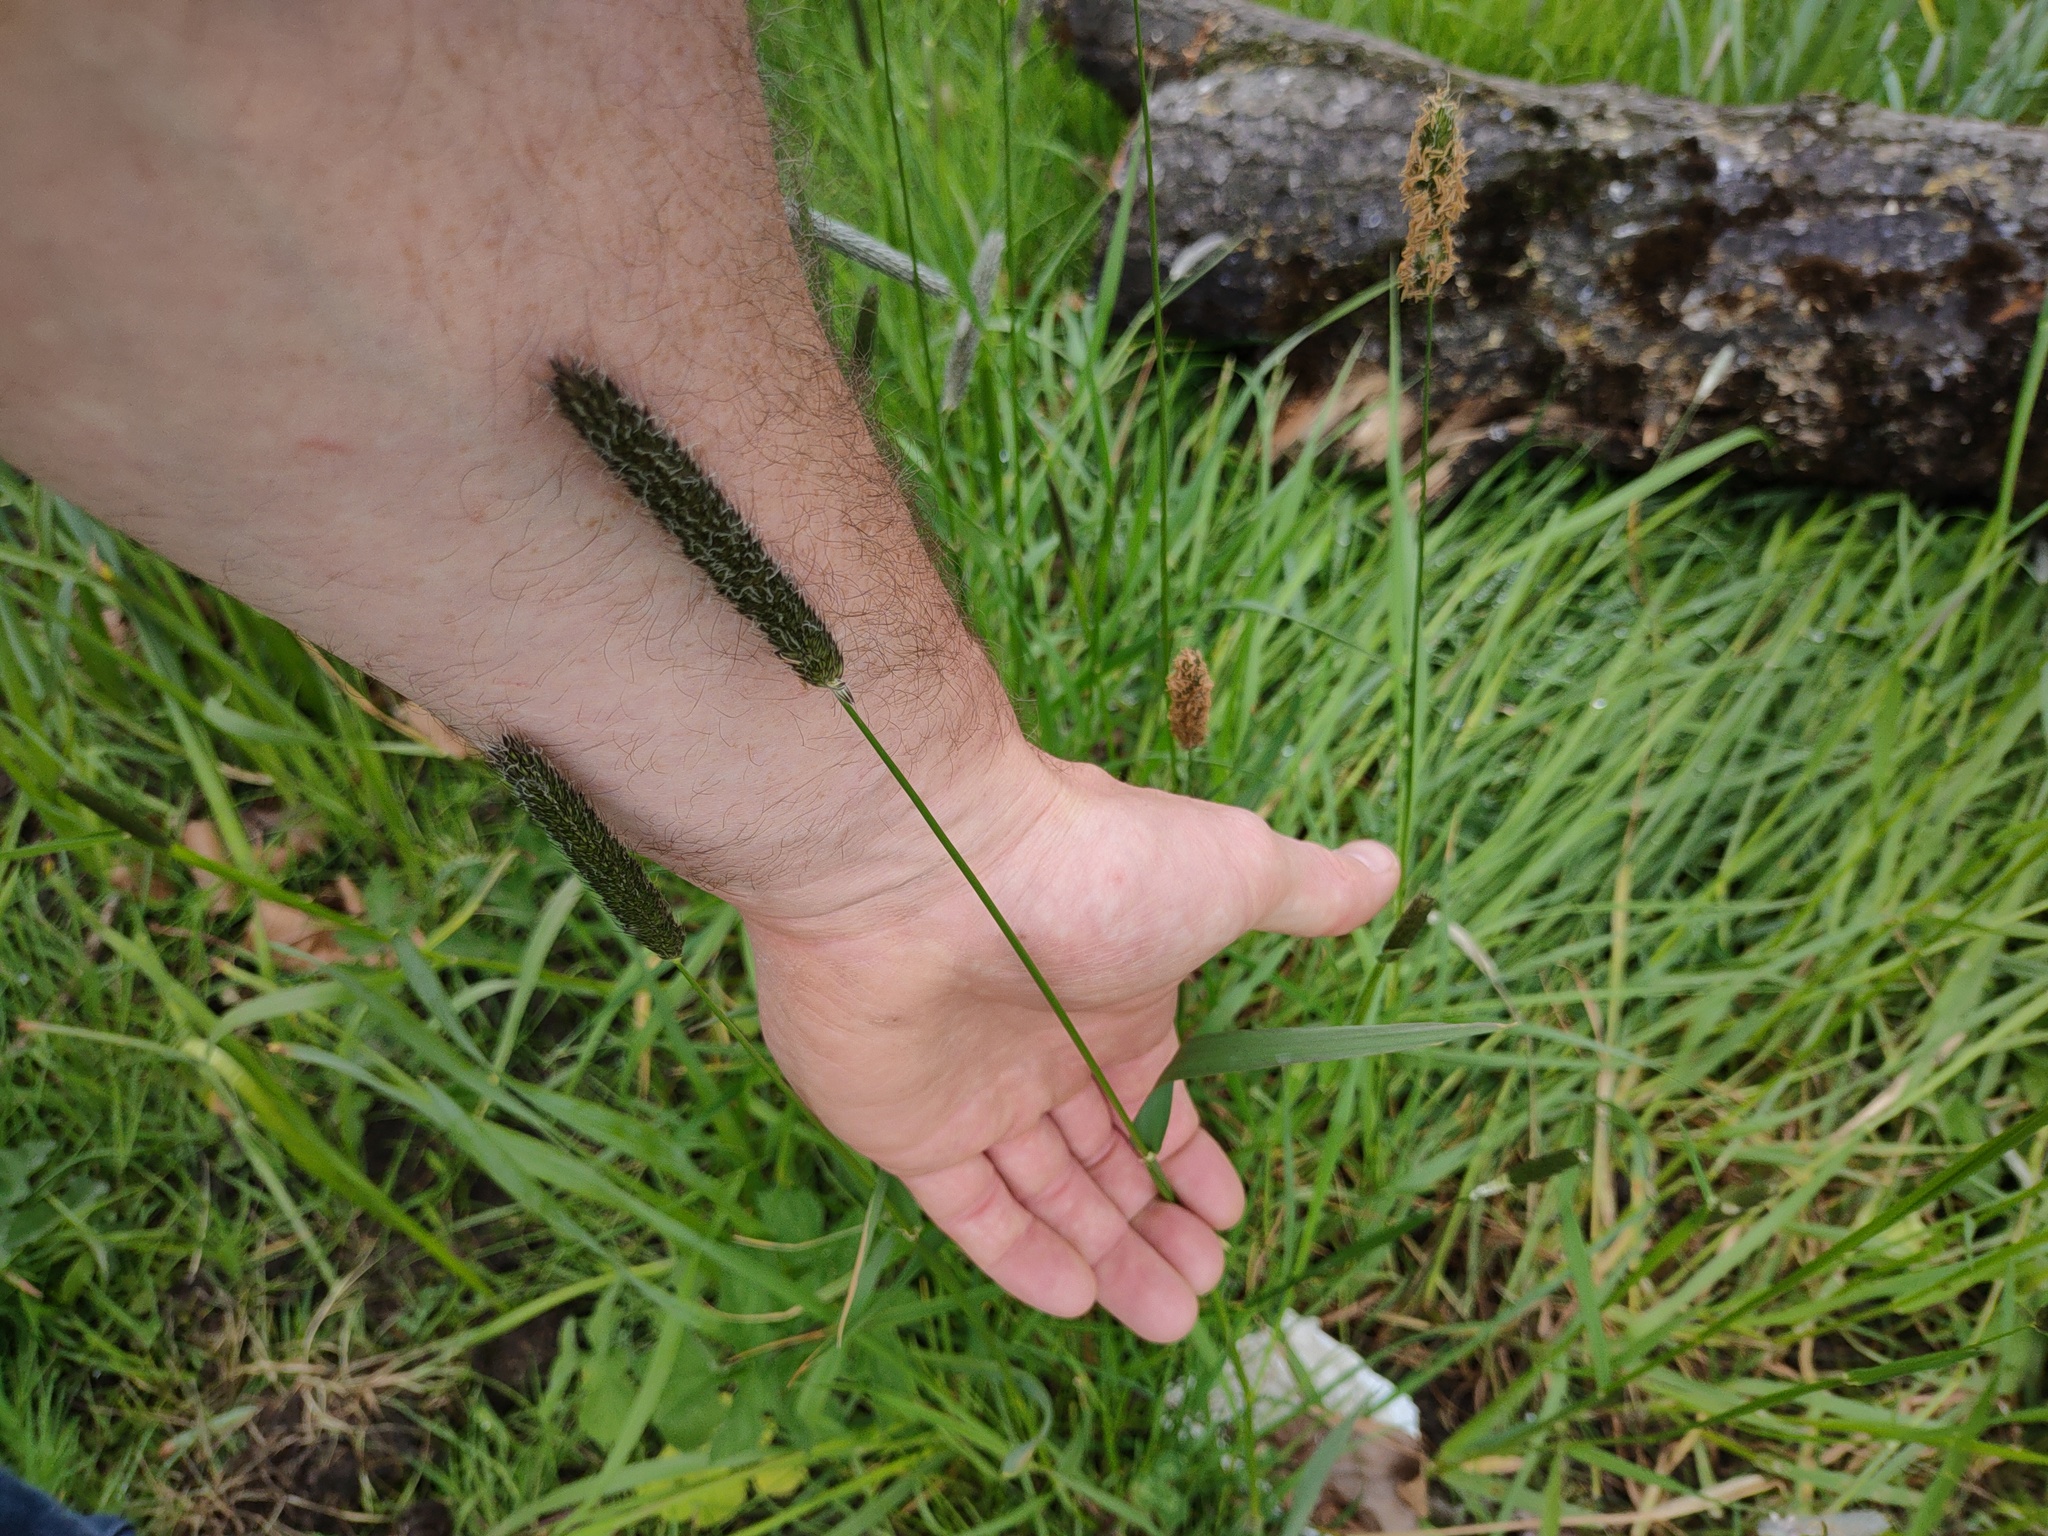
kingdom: Plantae
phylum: Tracheophyta
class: Liliopsida
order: Poales
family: Poaceae
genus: Alopecurus
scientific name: Alopecurus pratensis
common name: Meadow foxtail
